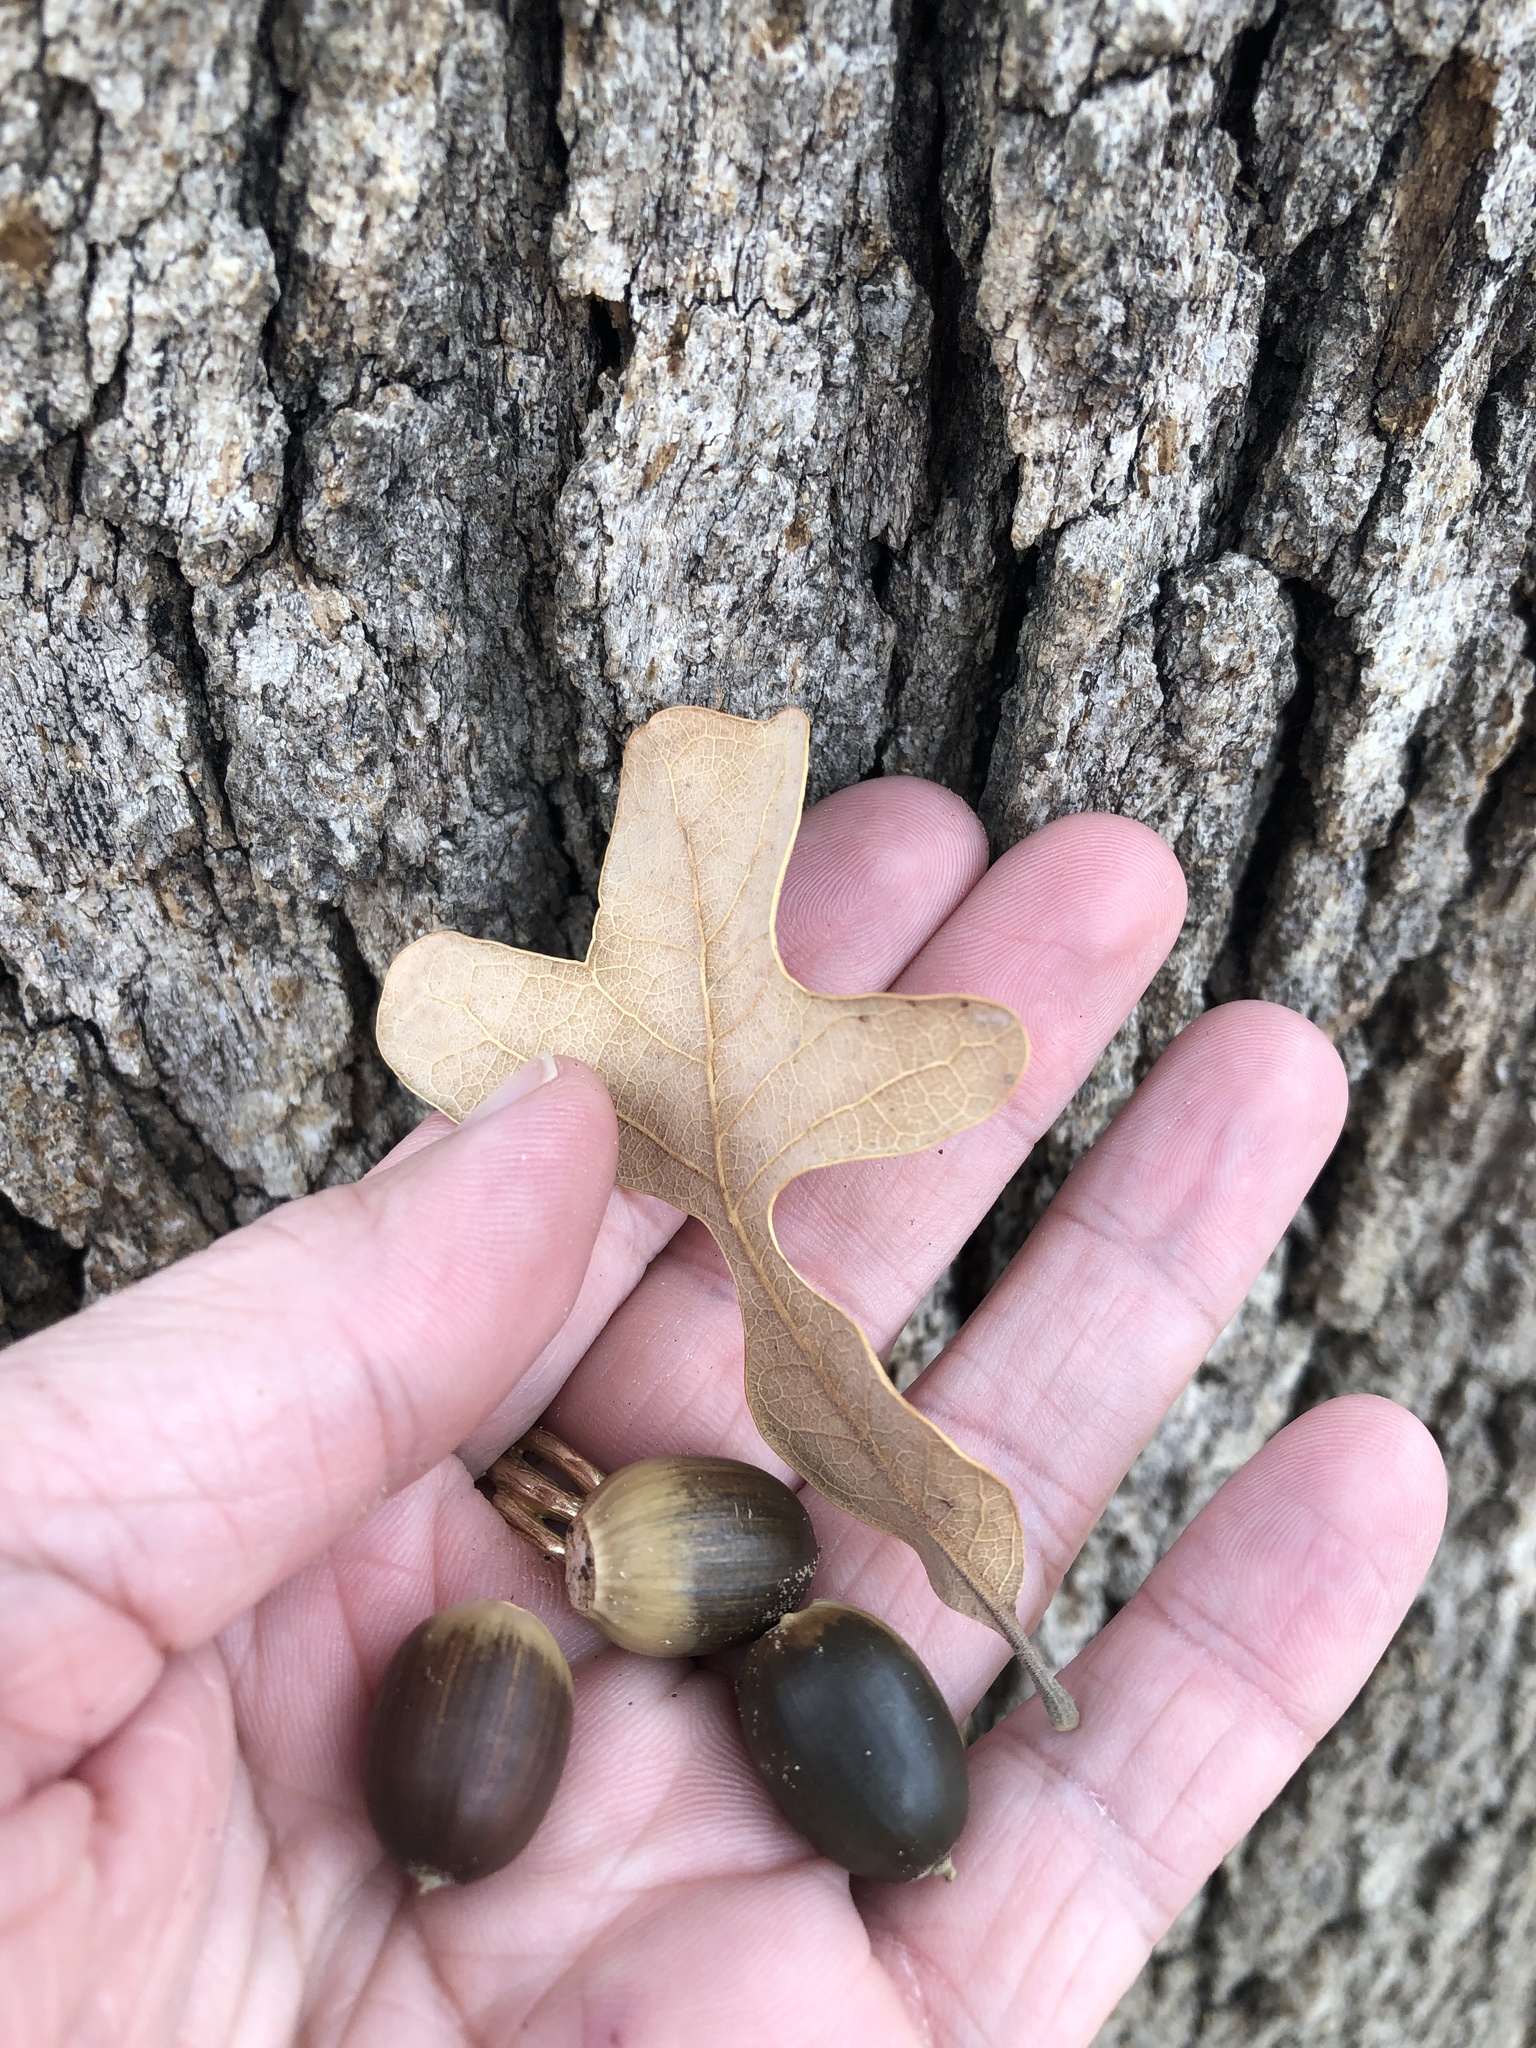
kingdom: Plantae
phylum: Tracheophyta
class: Magnoliopsida
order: Fagales
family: Fagaceae
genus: Quercus
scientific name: Quercus stellata
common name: Post oak
